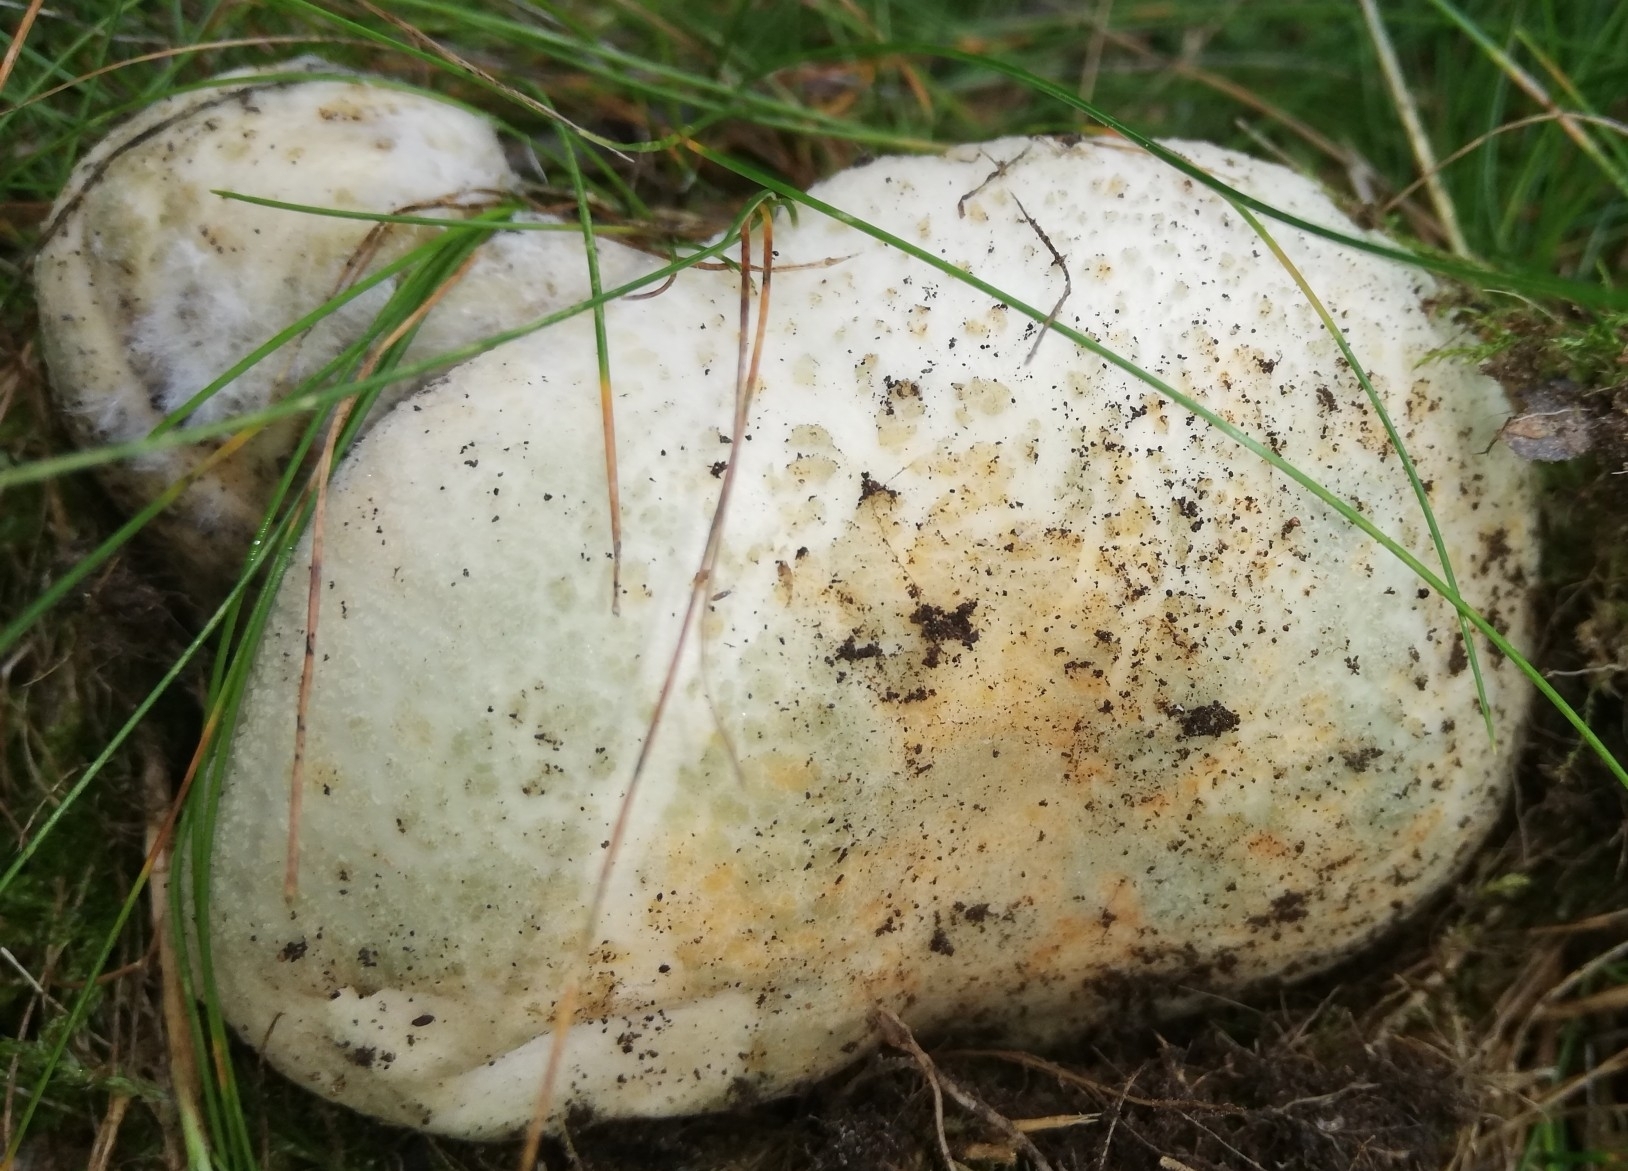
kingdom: Fungi
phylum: Basidiomycota
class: Agaricomycetes
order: Russulales
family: Russulaceae
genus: Russula
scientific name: Russula virescens
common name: Greencracked brittlegill
